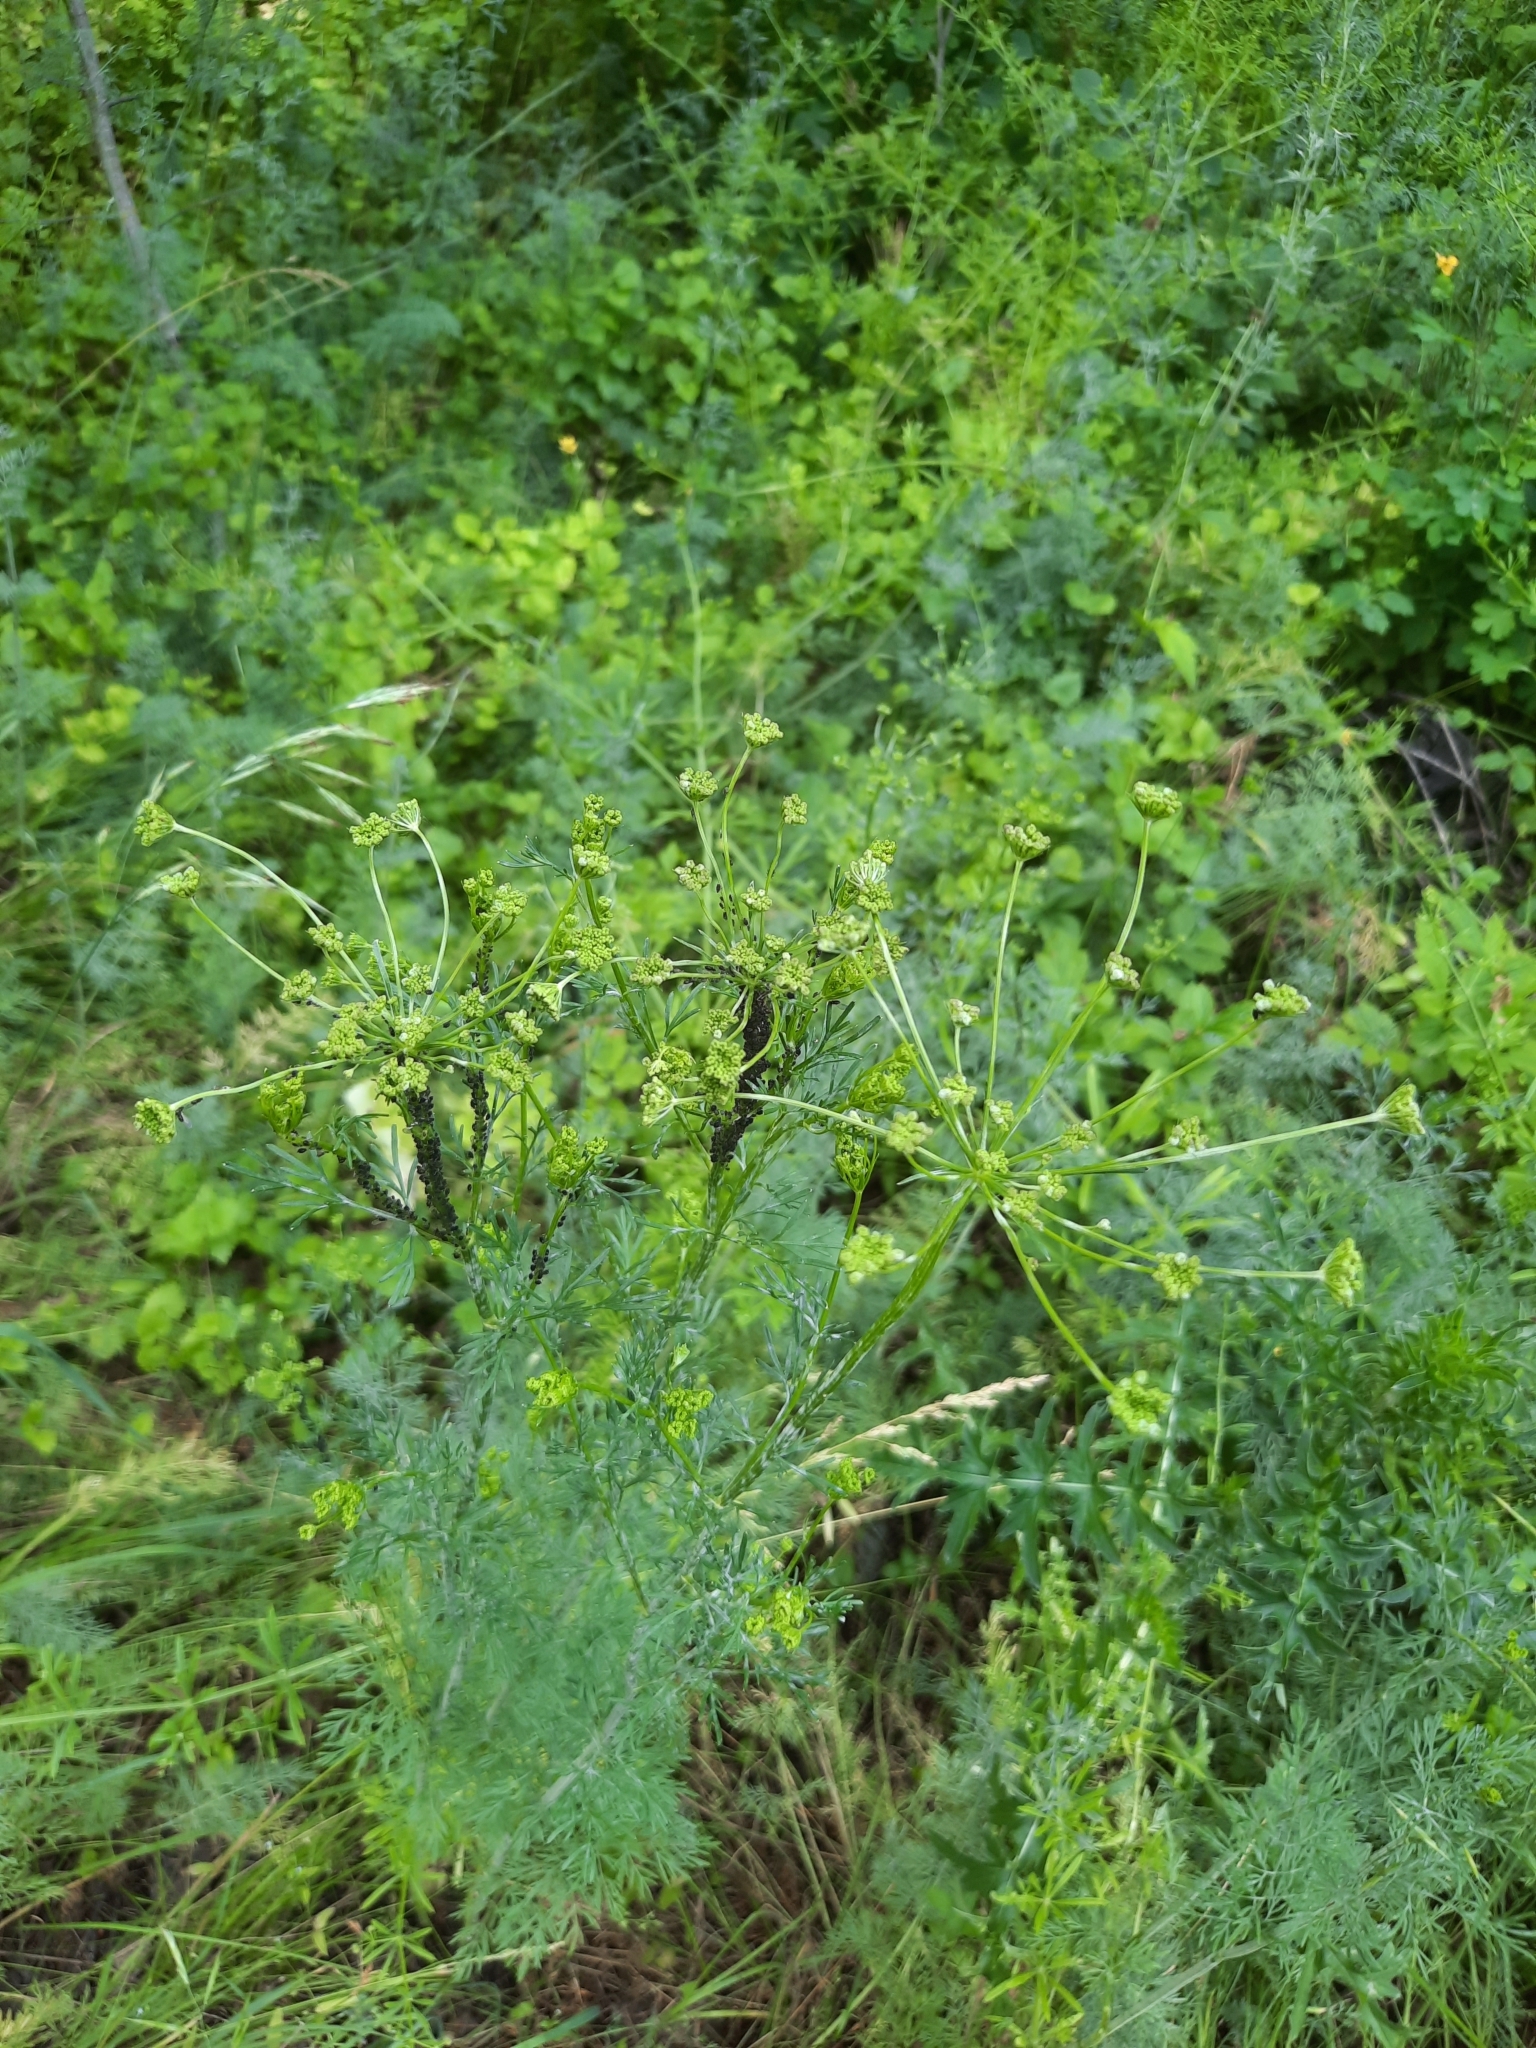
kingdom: Plantae
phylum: Tracheophyta
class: Magnoliopsida
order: Apiales
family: Apiaceae
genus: Gasparinia
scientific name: Gasparinia peucedanoides
